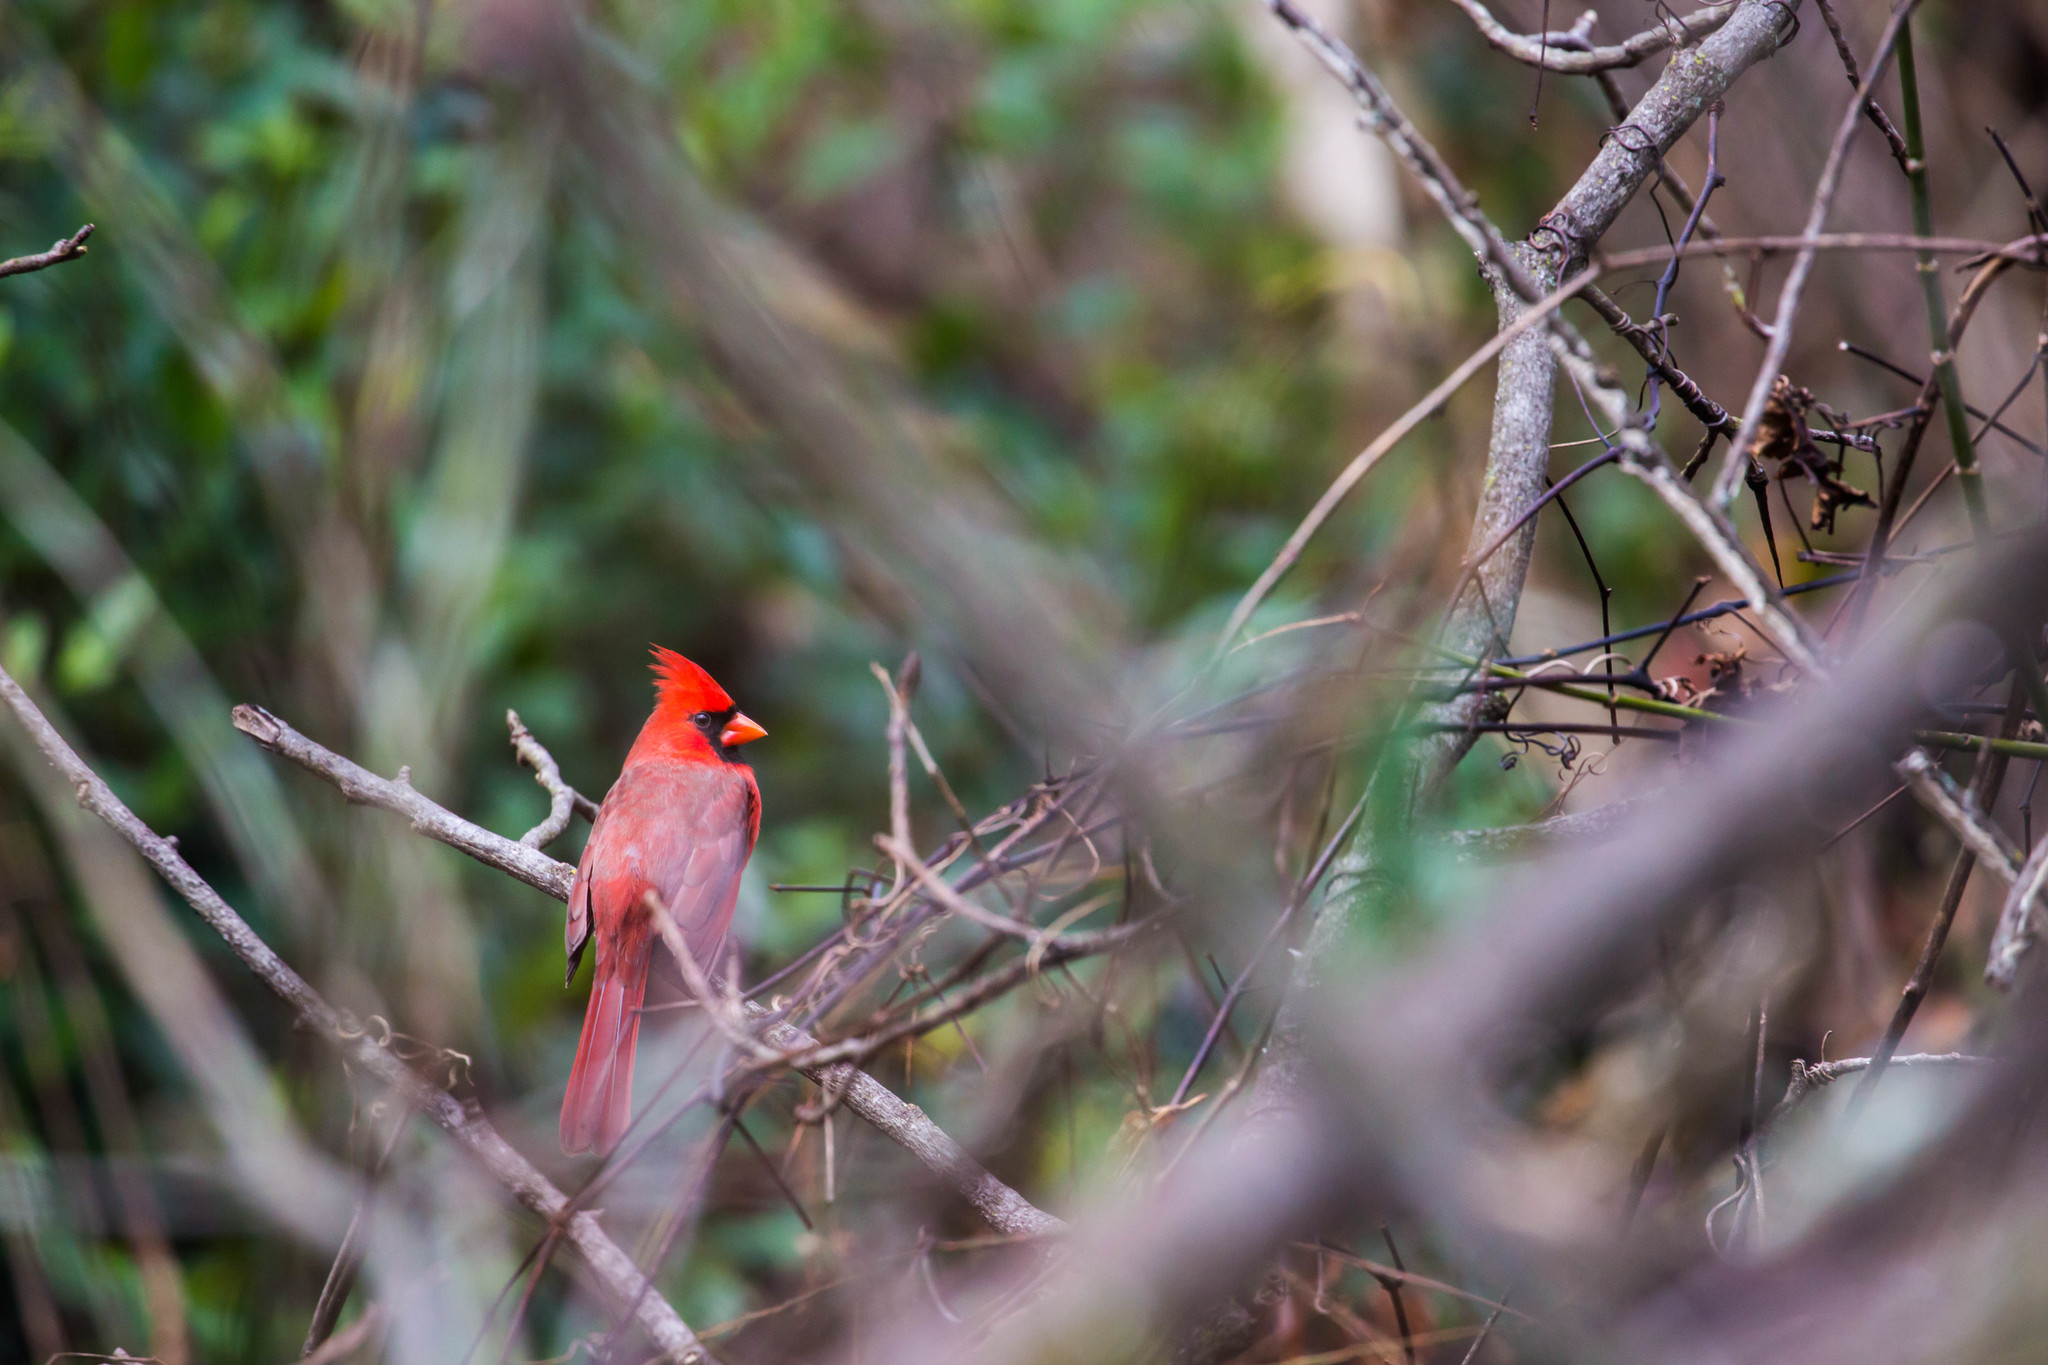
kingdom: Animalia
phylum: Chordata
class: Aves
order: Passeriformes
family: Cardinalidae
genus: Cardinalis
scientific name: Cardinalis cardinalis
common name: Northern cardinal
